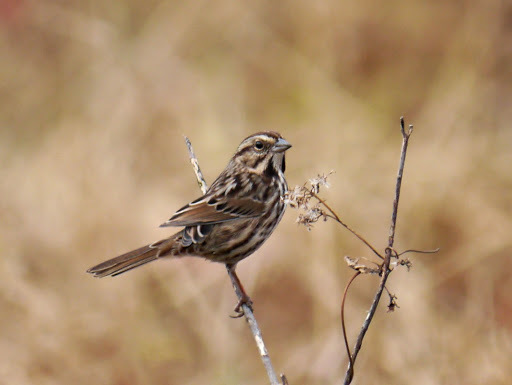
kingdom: Animalia
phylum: Chordata
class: Aves
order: Passeriformes
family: Passerellidae
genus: Melospiza
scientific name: Melospiza melodia
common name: Song sparrow
